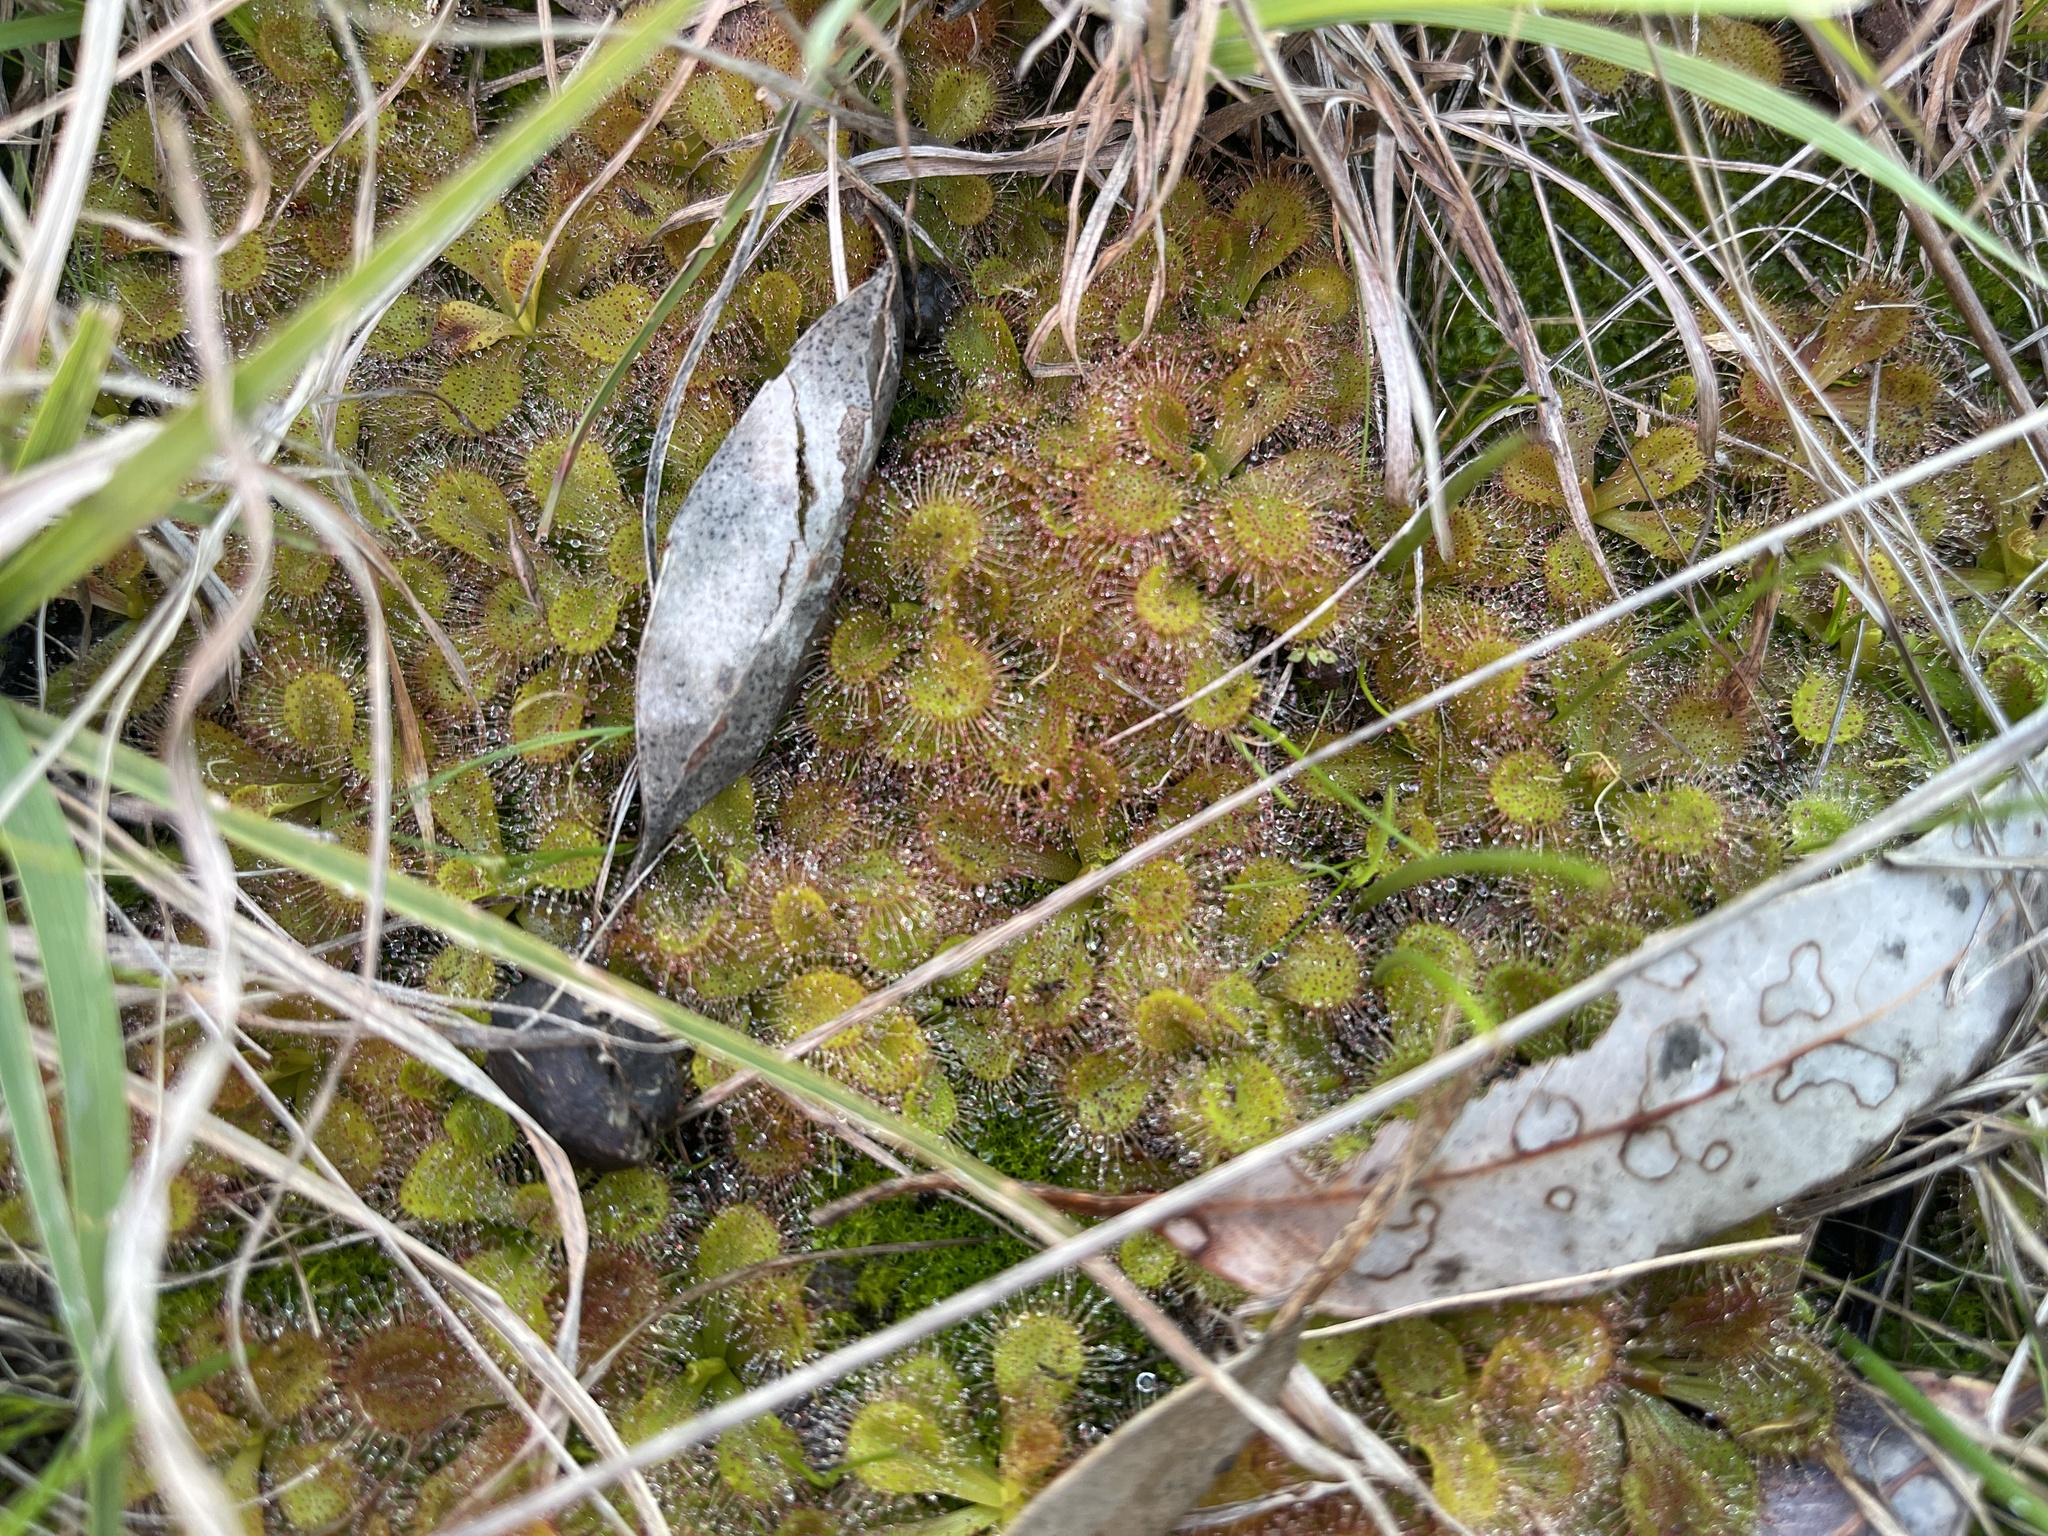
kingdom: Plantae
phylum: Tracheophyta
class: Magnoliopsida
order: Caryophyllales
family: Droseraceae
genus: Drosera
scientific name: Drosera aberrans
